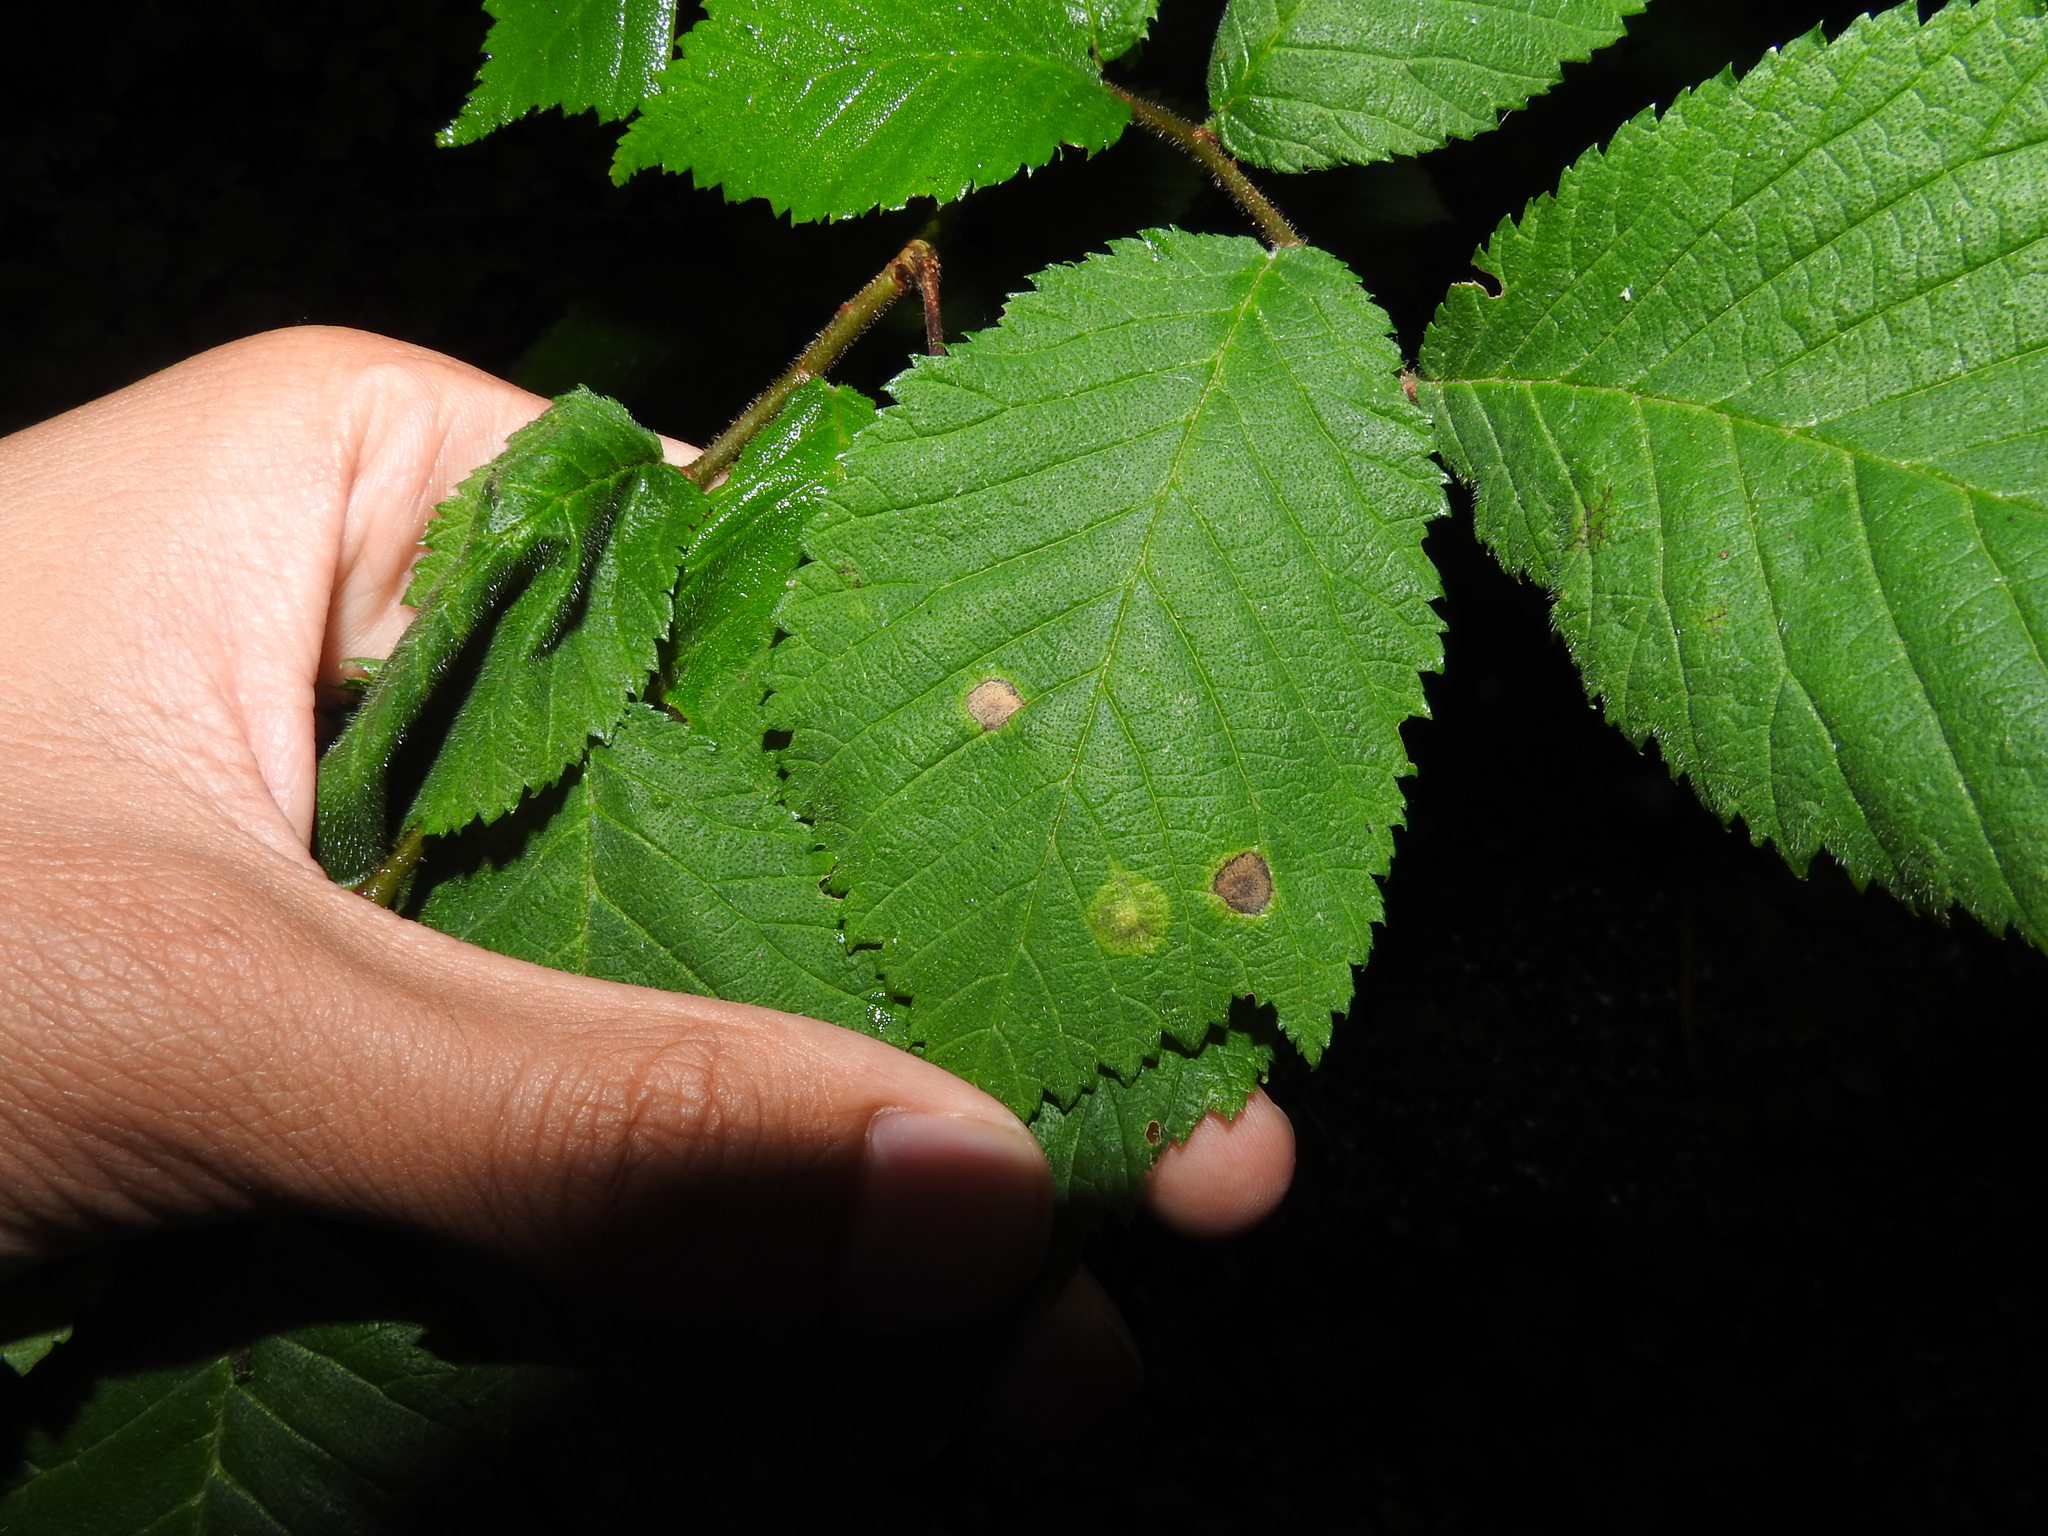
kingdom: Animalia
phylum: Arthropoda
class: Insecta
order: Diptera
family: Cecidomyiidae
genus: Physemocecis
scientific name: Physemocecis ulmi
